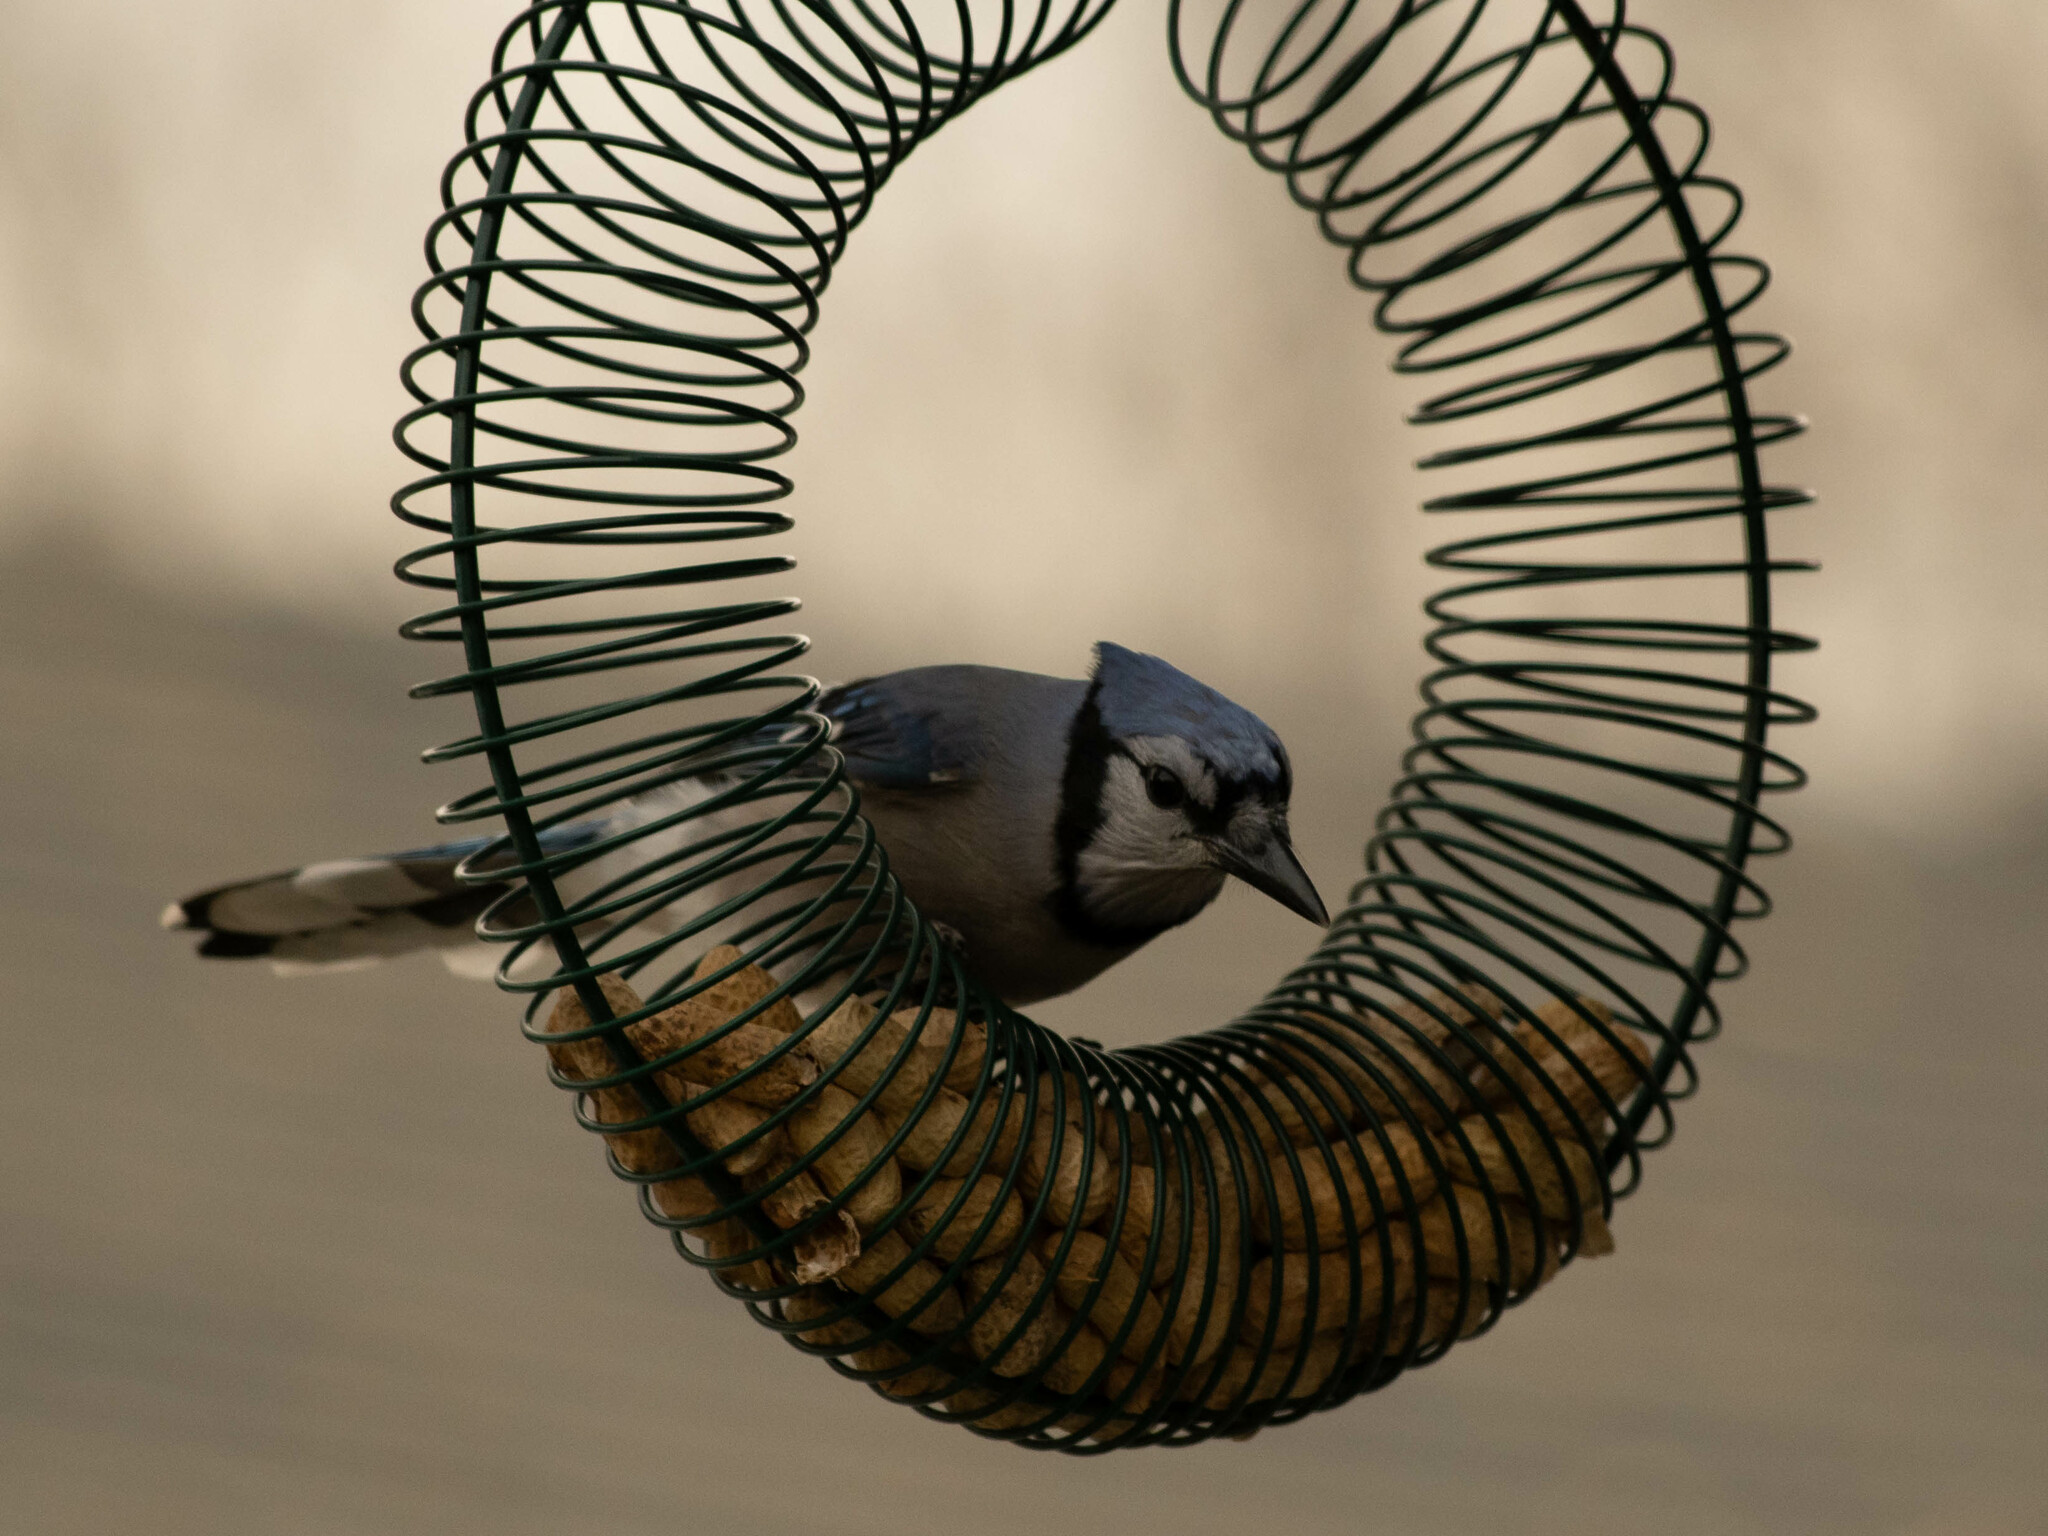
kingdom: Animalia
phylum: Chordata
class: Aves
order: Passeriformes
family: Corvidae
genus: Cyanocitta
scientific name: Cyanocitta cristata
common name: Blue jay
